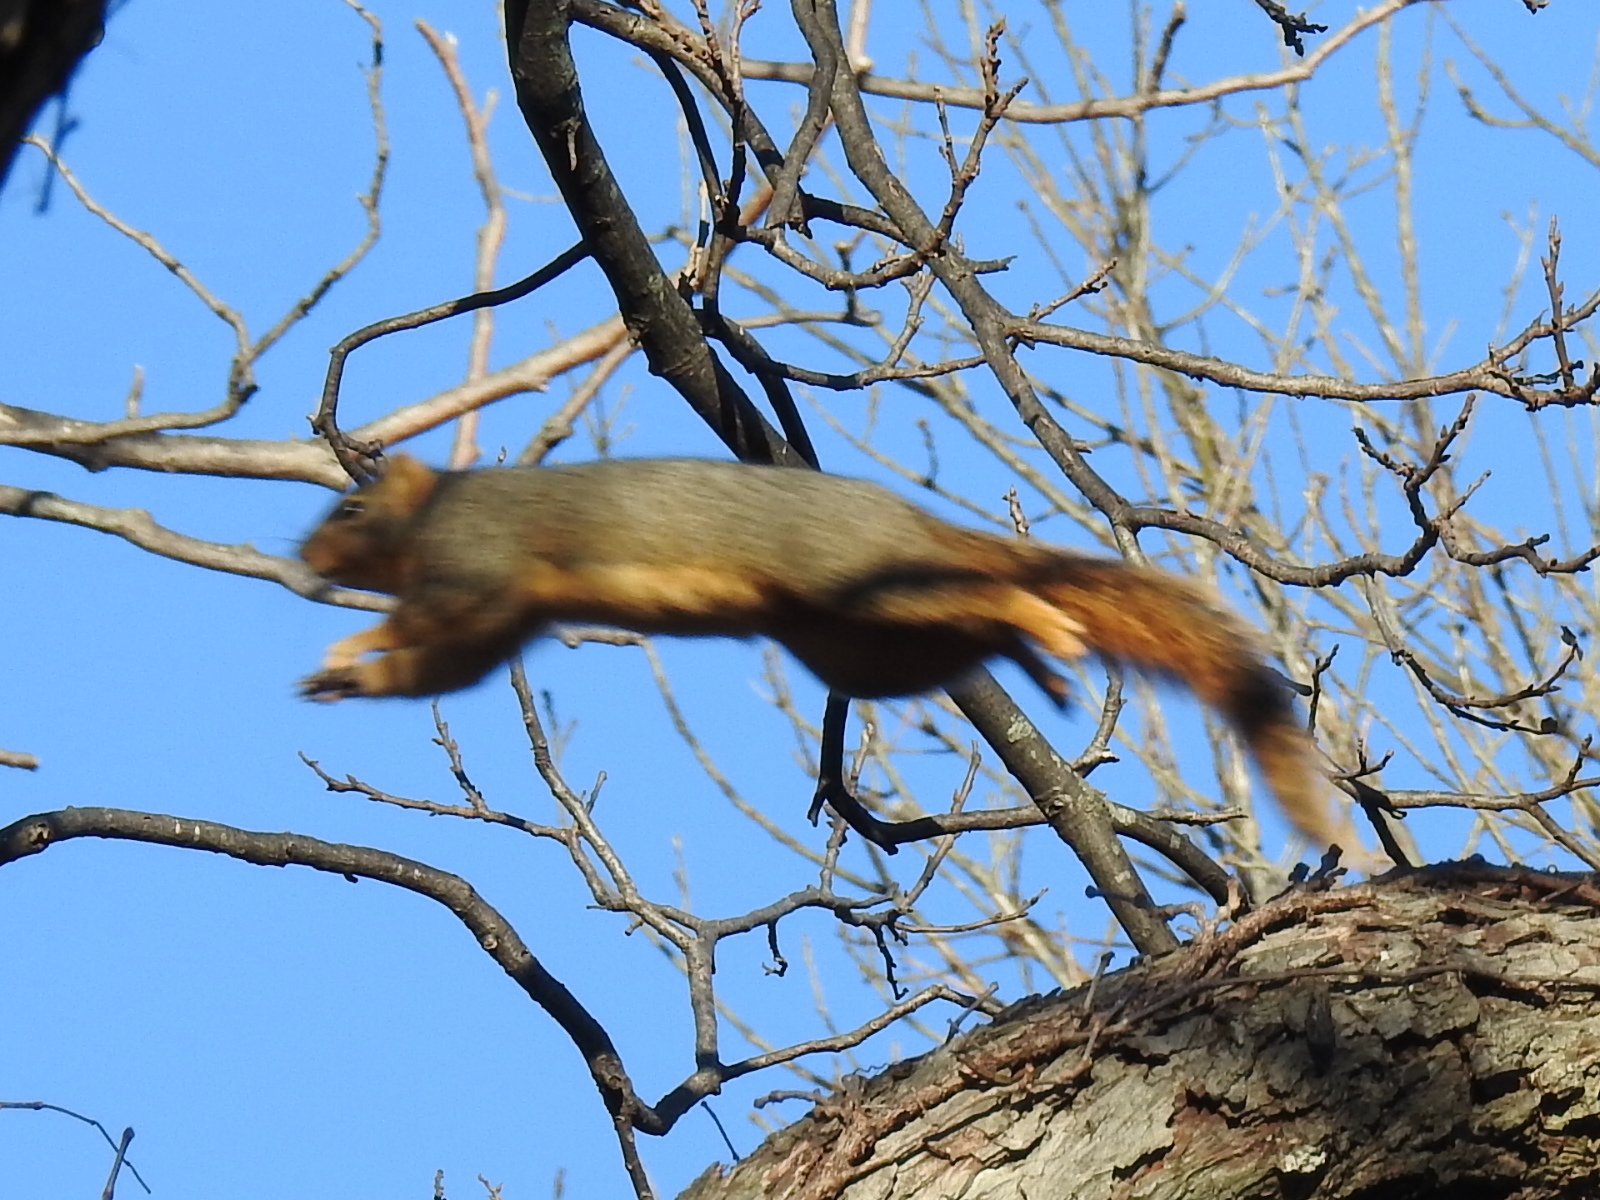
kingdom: Animalia
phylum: Chordata
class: Mammalia
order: Rodentia
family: Sciuridae
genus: Sciurus
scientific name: Sciurus niger
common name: Fox squirrel
